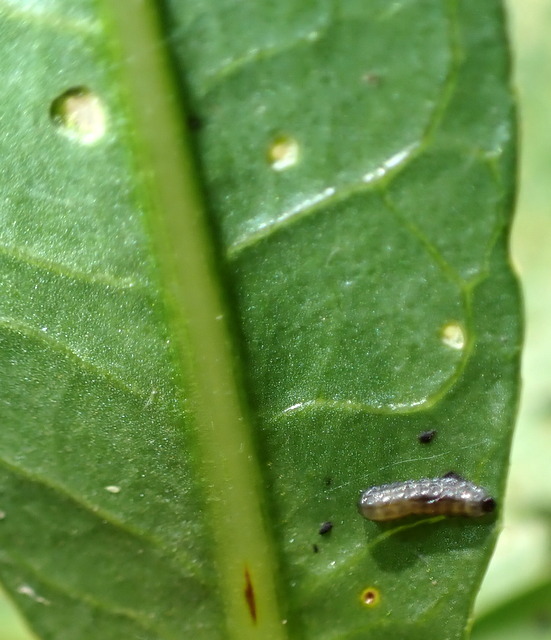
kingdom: Animalia
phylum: Arthropoda
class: Insecta
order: Coleoptera
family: Chrysomelidae
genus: Agasicles
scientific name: Agasicles hygrophila
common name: Alligatorweed flea beetle
